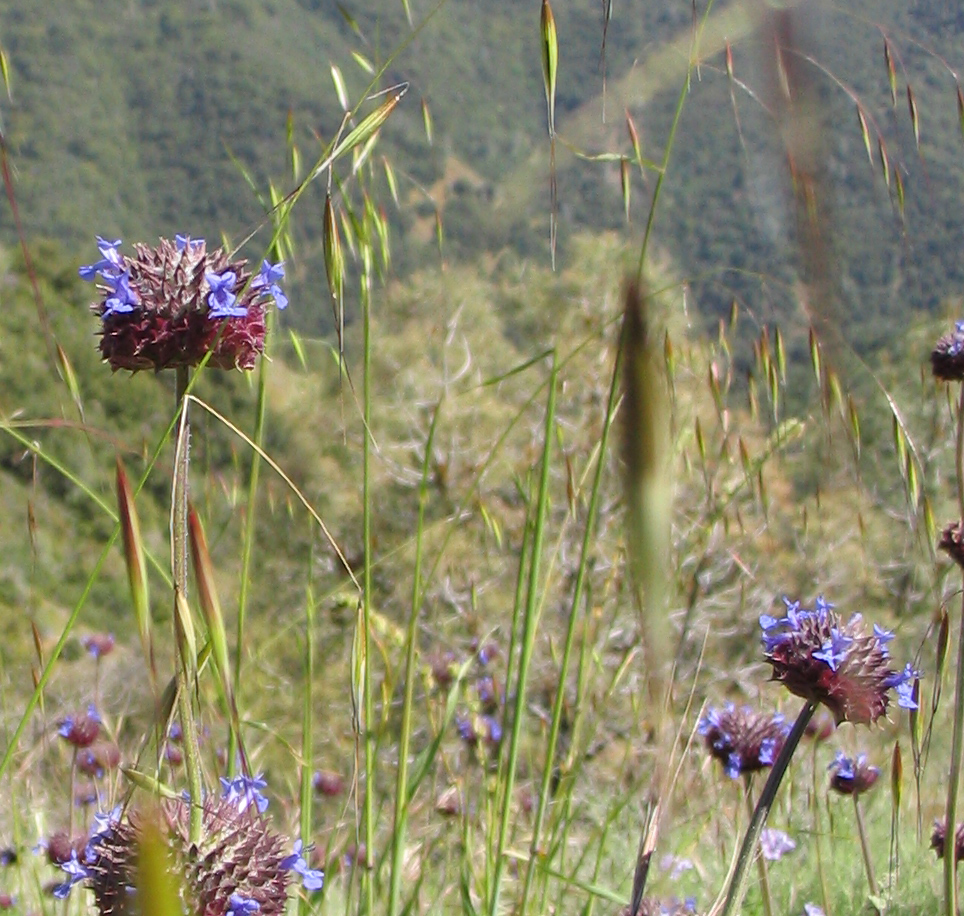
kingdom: Plantae
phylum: Tracheophyta
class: Magnoliopsida
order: Lamiales
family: Lamiaceae
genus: Salvia
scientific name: Salvia columbariae
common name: Chia
